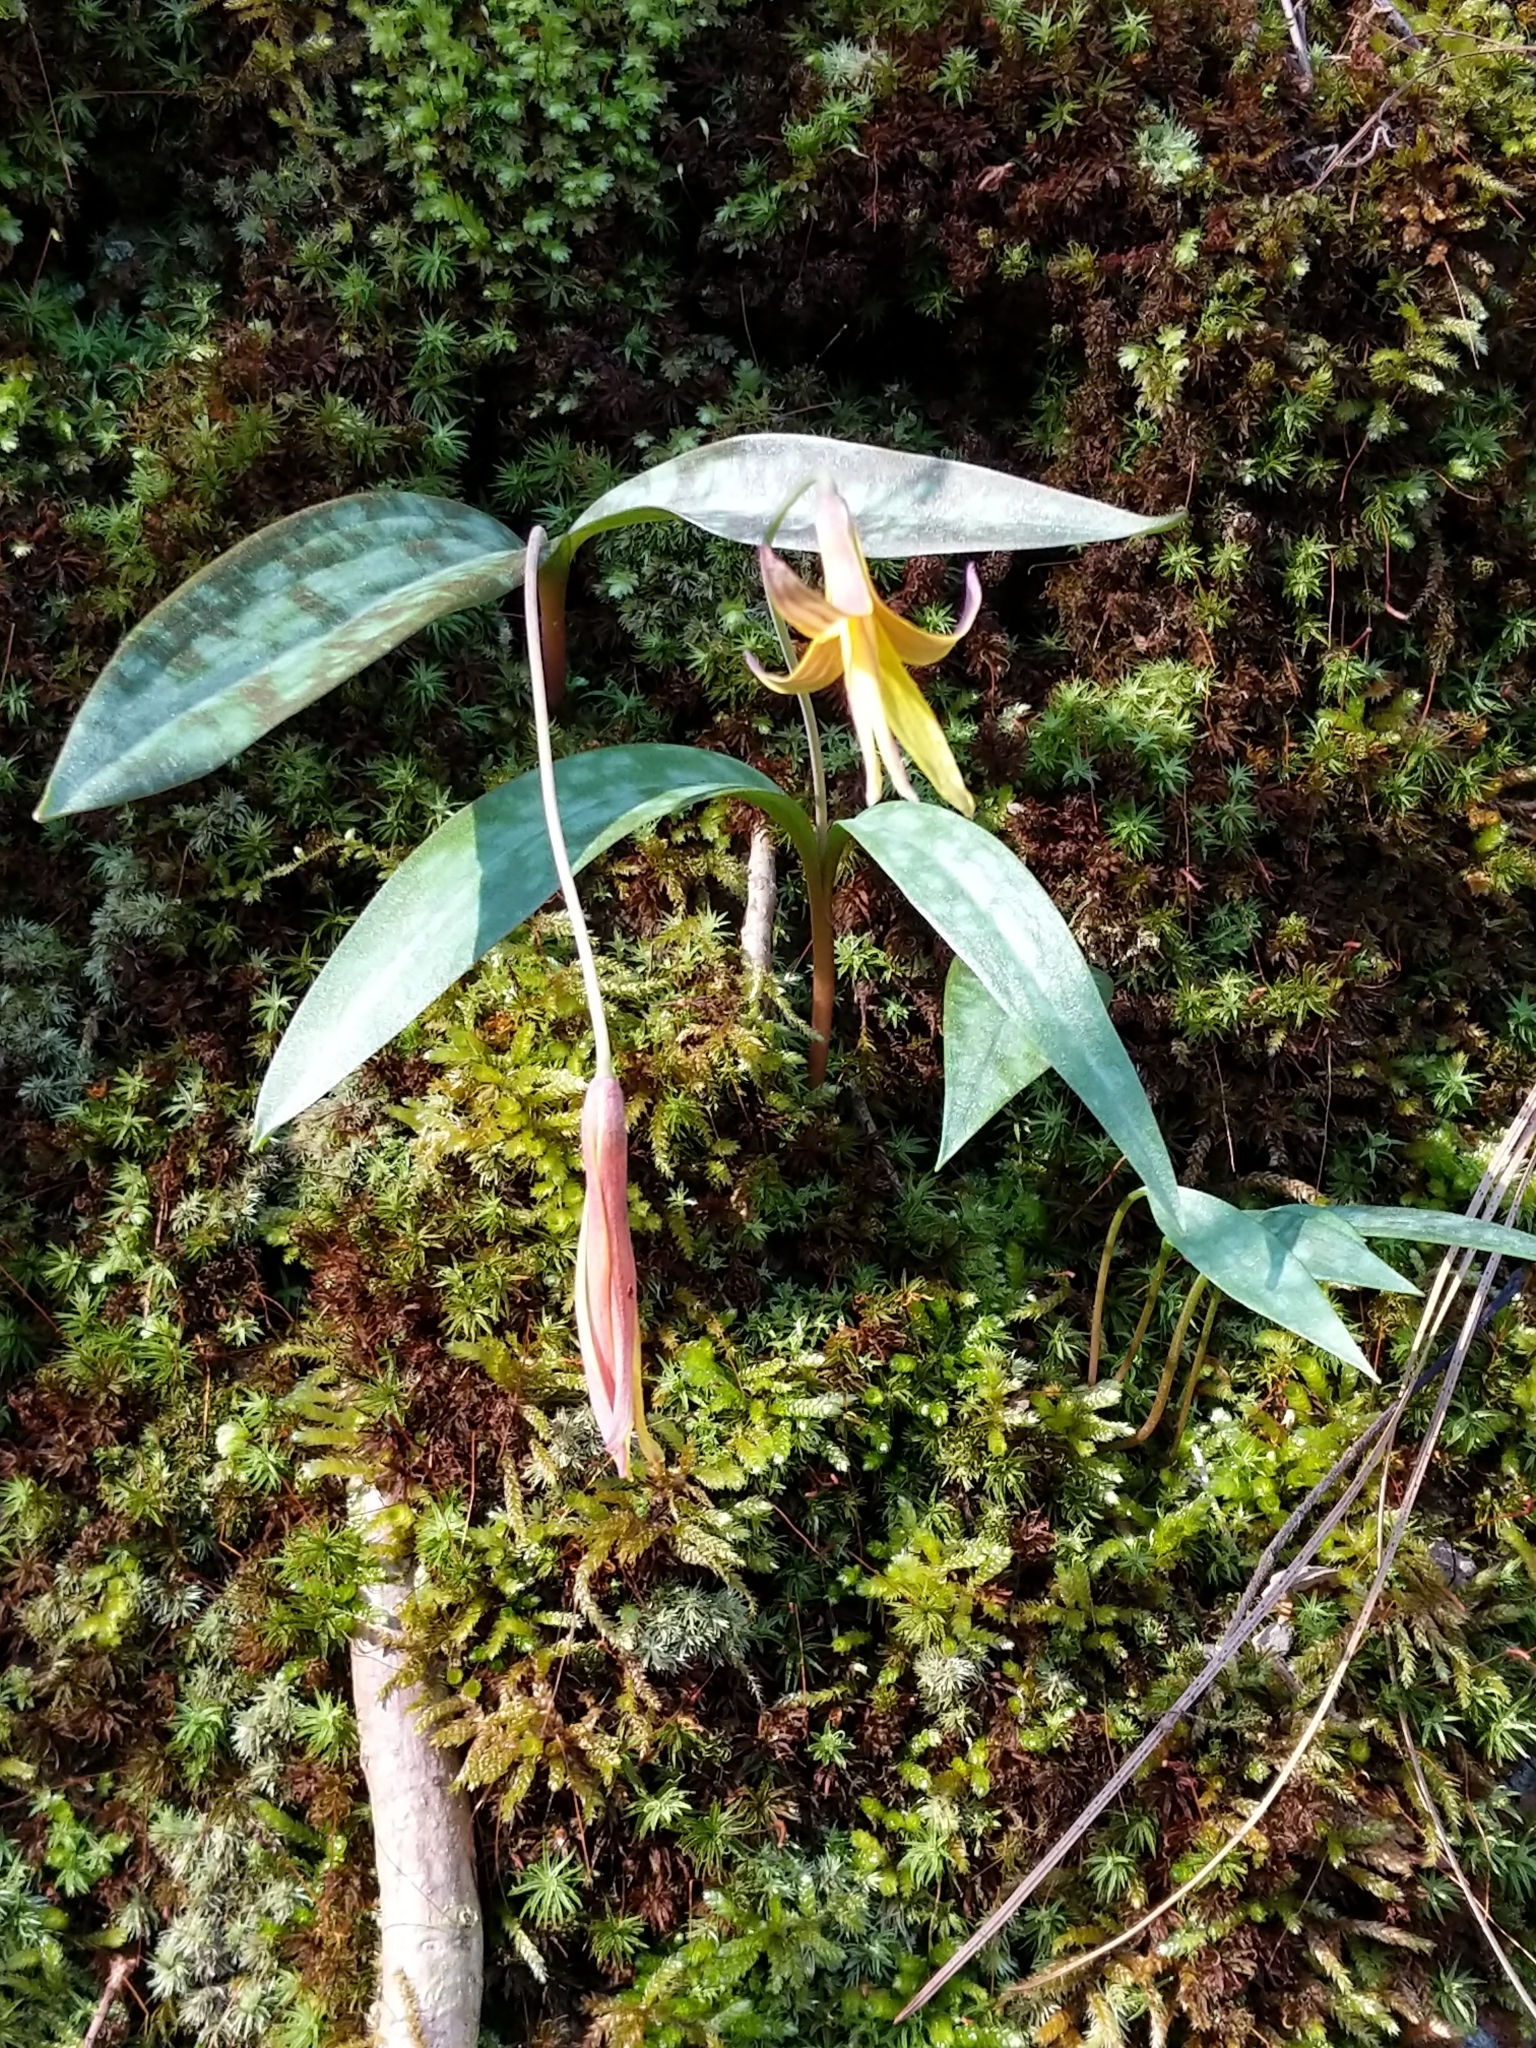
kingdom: Plantae
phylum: Tracheophyta
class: Liliopsida
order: Liliales
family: Liliaceae
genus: Erythronium
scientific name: Erythronium umbilicatum
